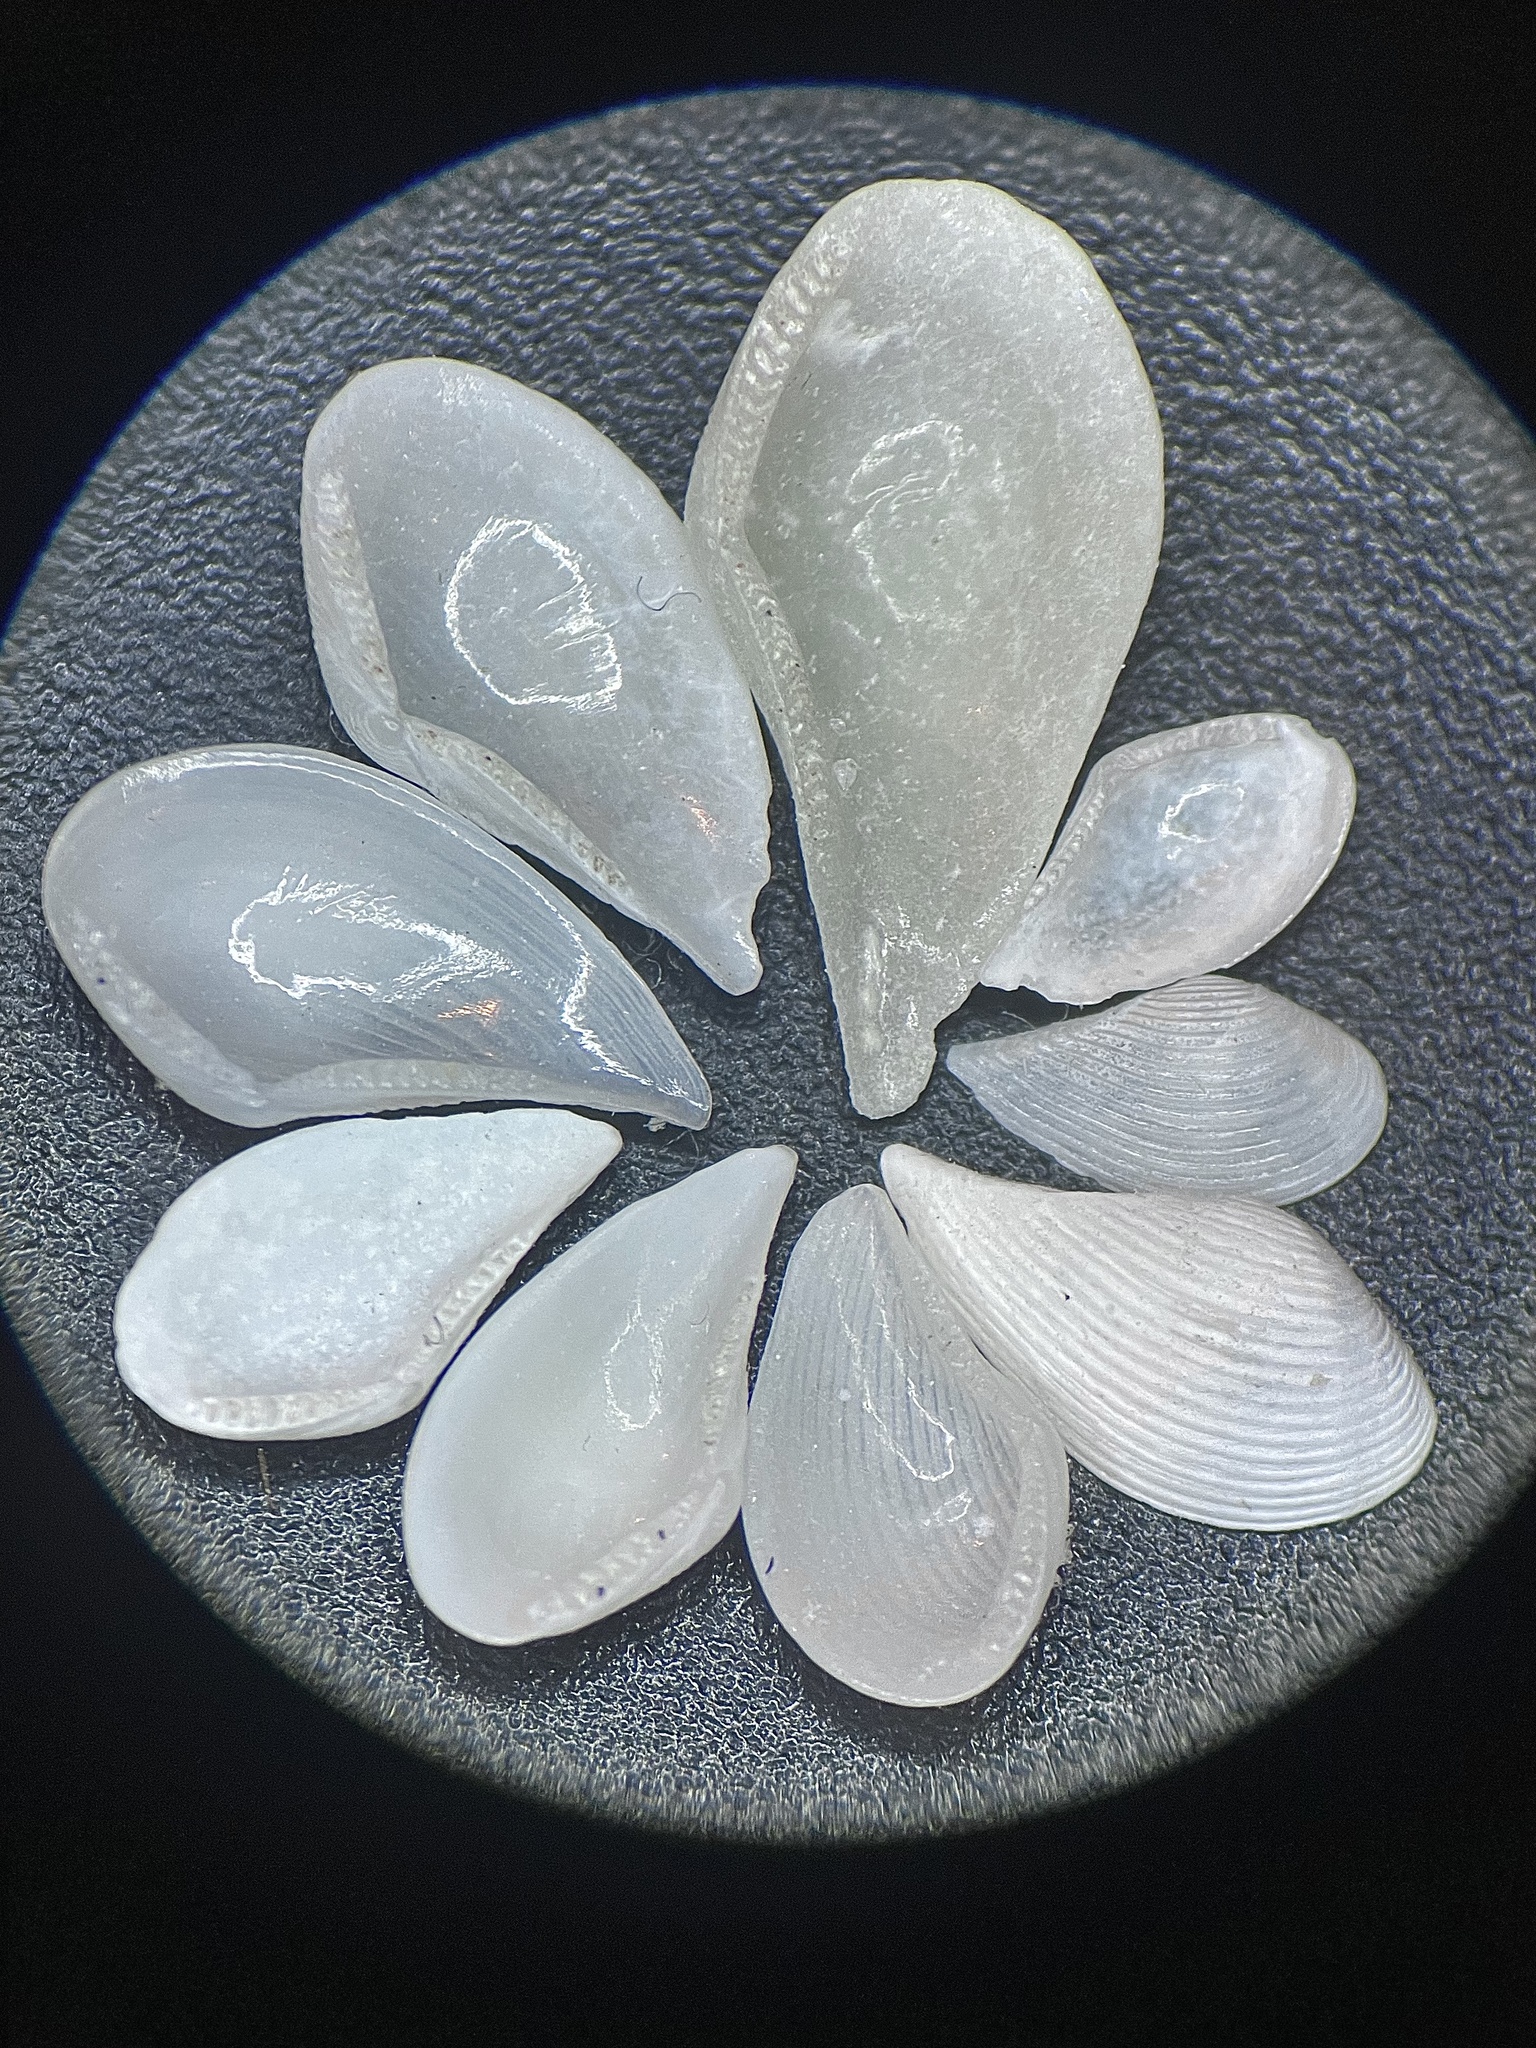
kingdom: Animalia
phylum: Mollusca
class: Bivalvia
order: Nuculanida
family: Nuculanidae
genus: Nuculana
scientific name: Nuculana acuta
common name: Pointed nut clam
